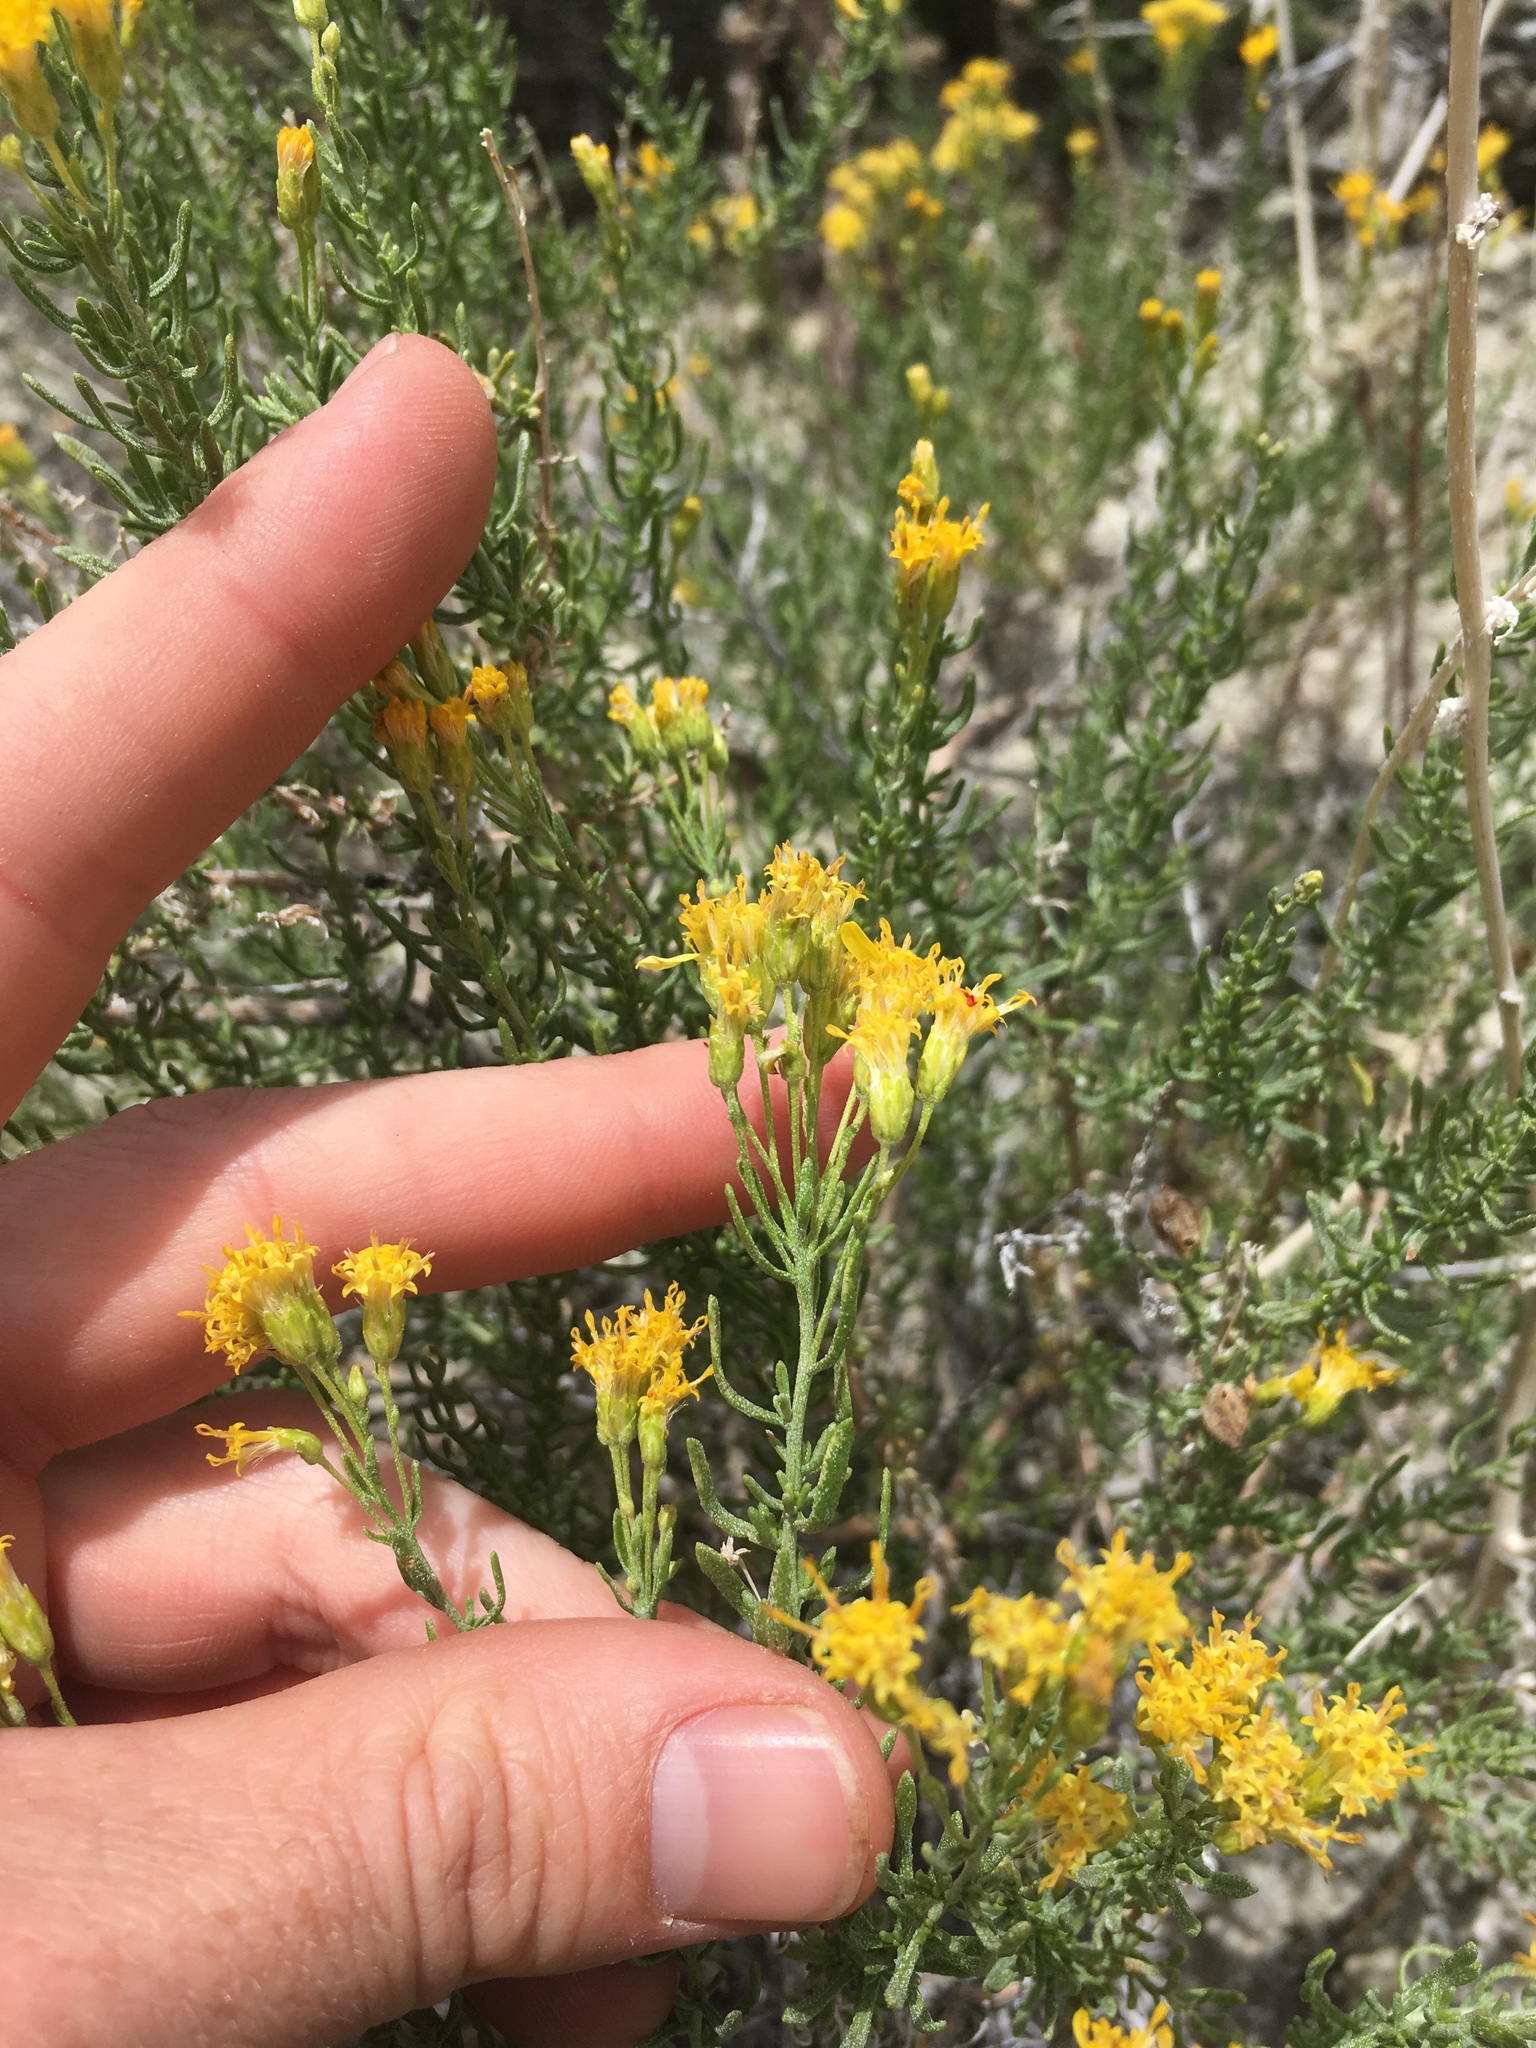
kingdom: Plantae
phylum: Tracheophyta
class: Magnoliopsida
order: Asterales
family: Asteraceae
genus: Ericameria
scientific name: Ericameria cooperi
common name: Cooper's goldenbush
